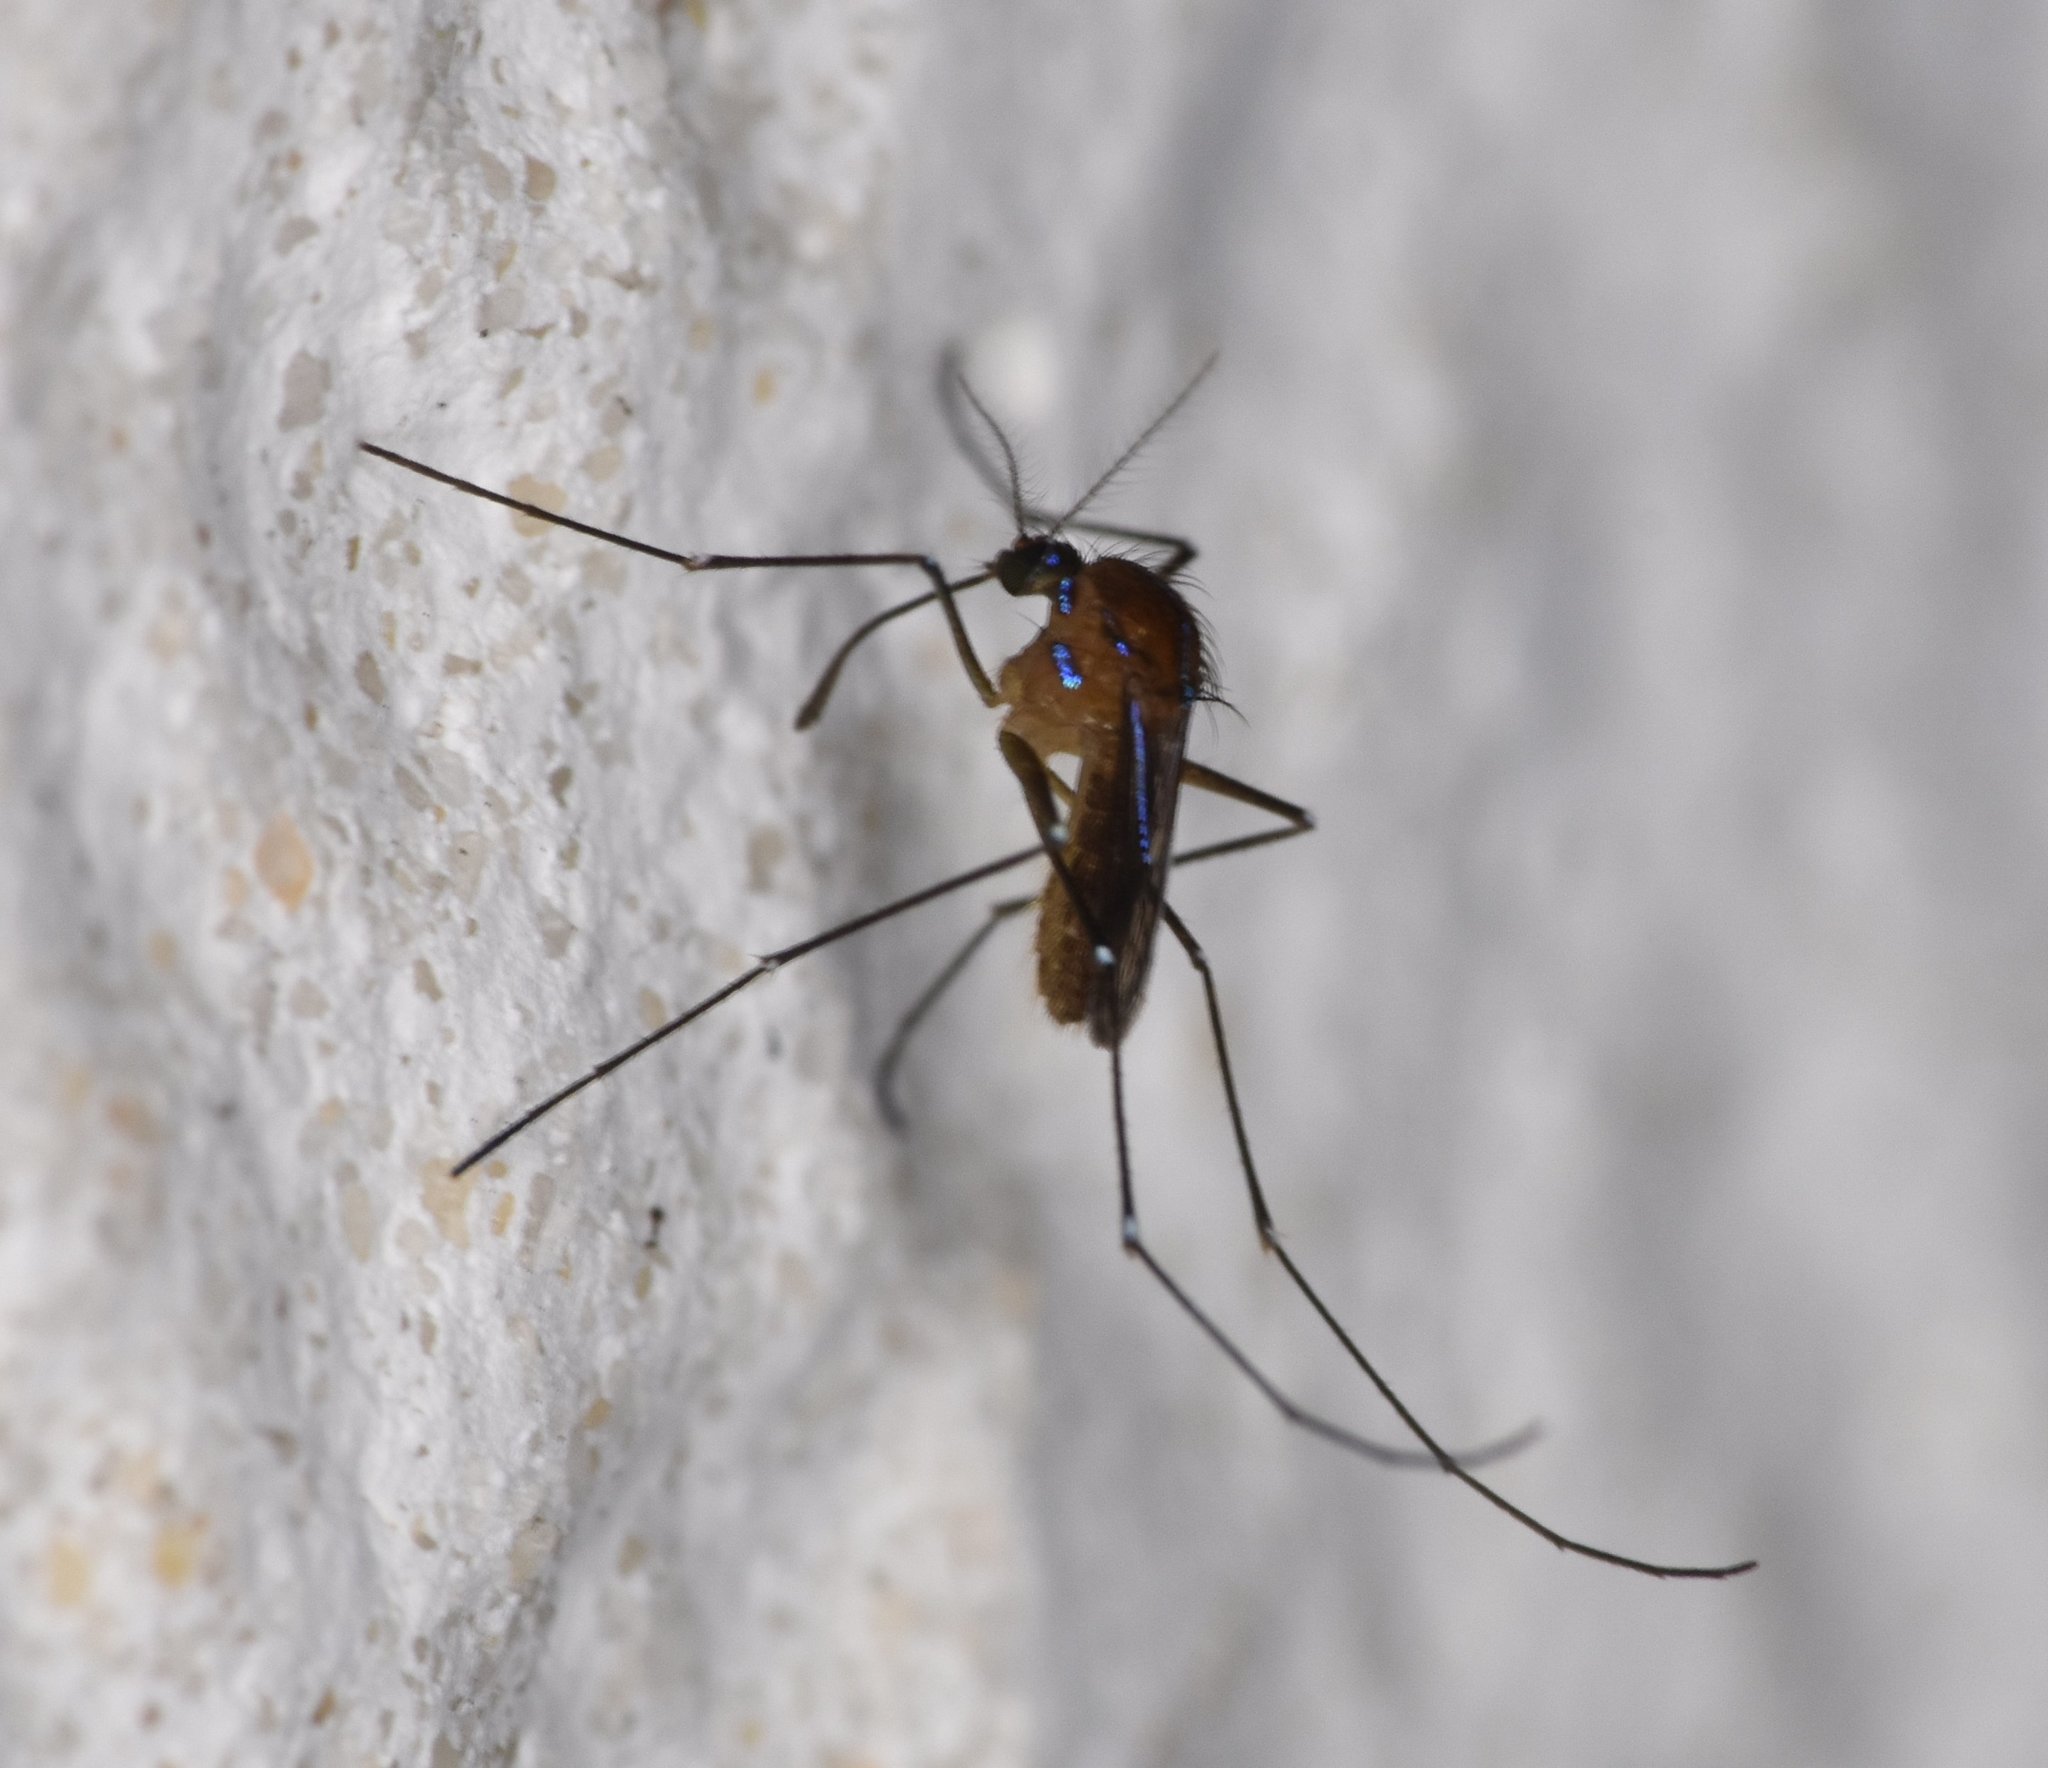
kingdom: Animalia
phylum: Arthropoda
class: Insecta
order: Diptera
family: Culicidae
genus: Uranotaenia
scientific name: Uranotaenia sapphirina
